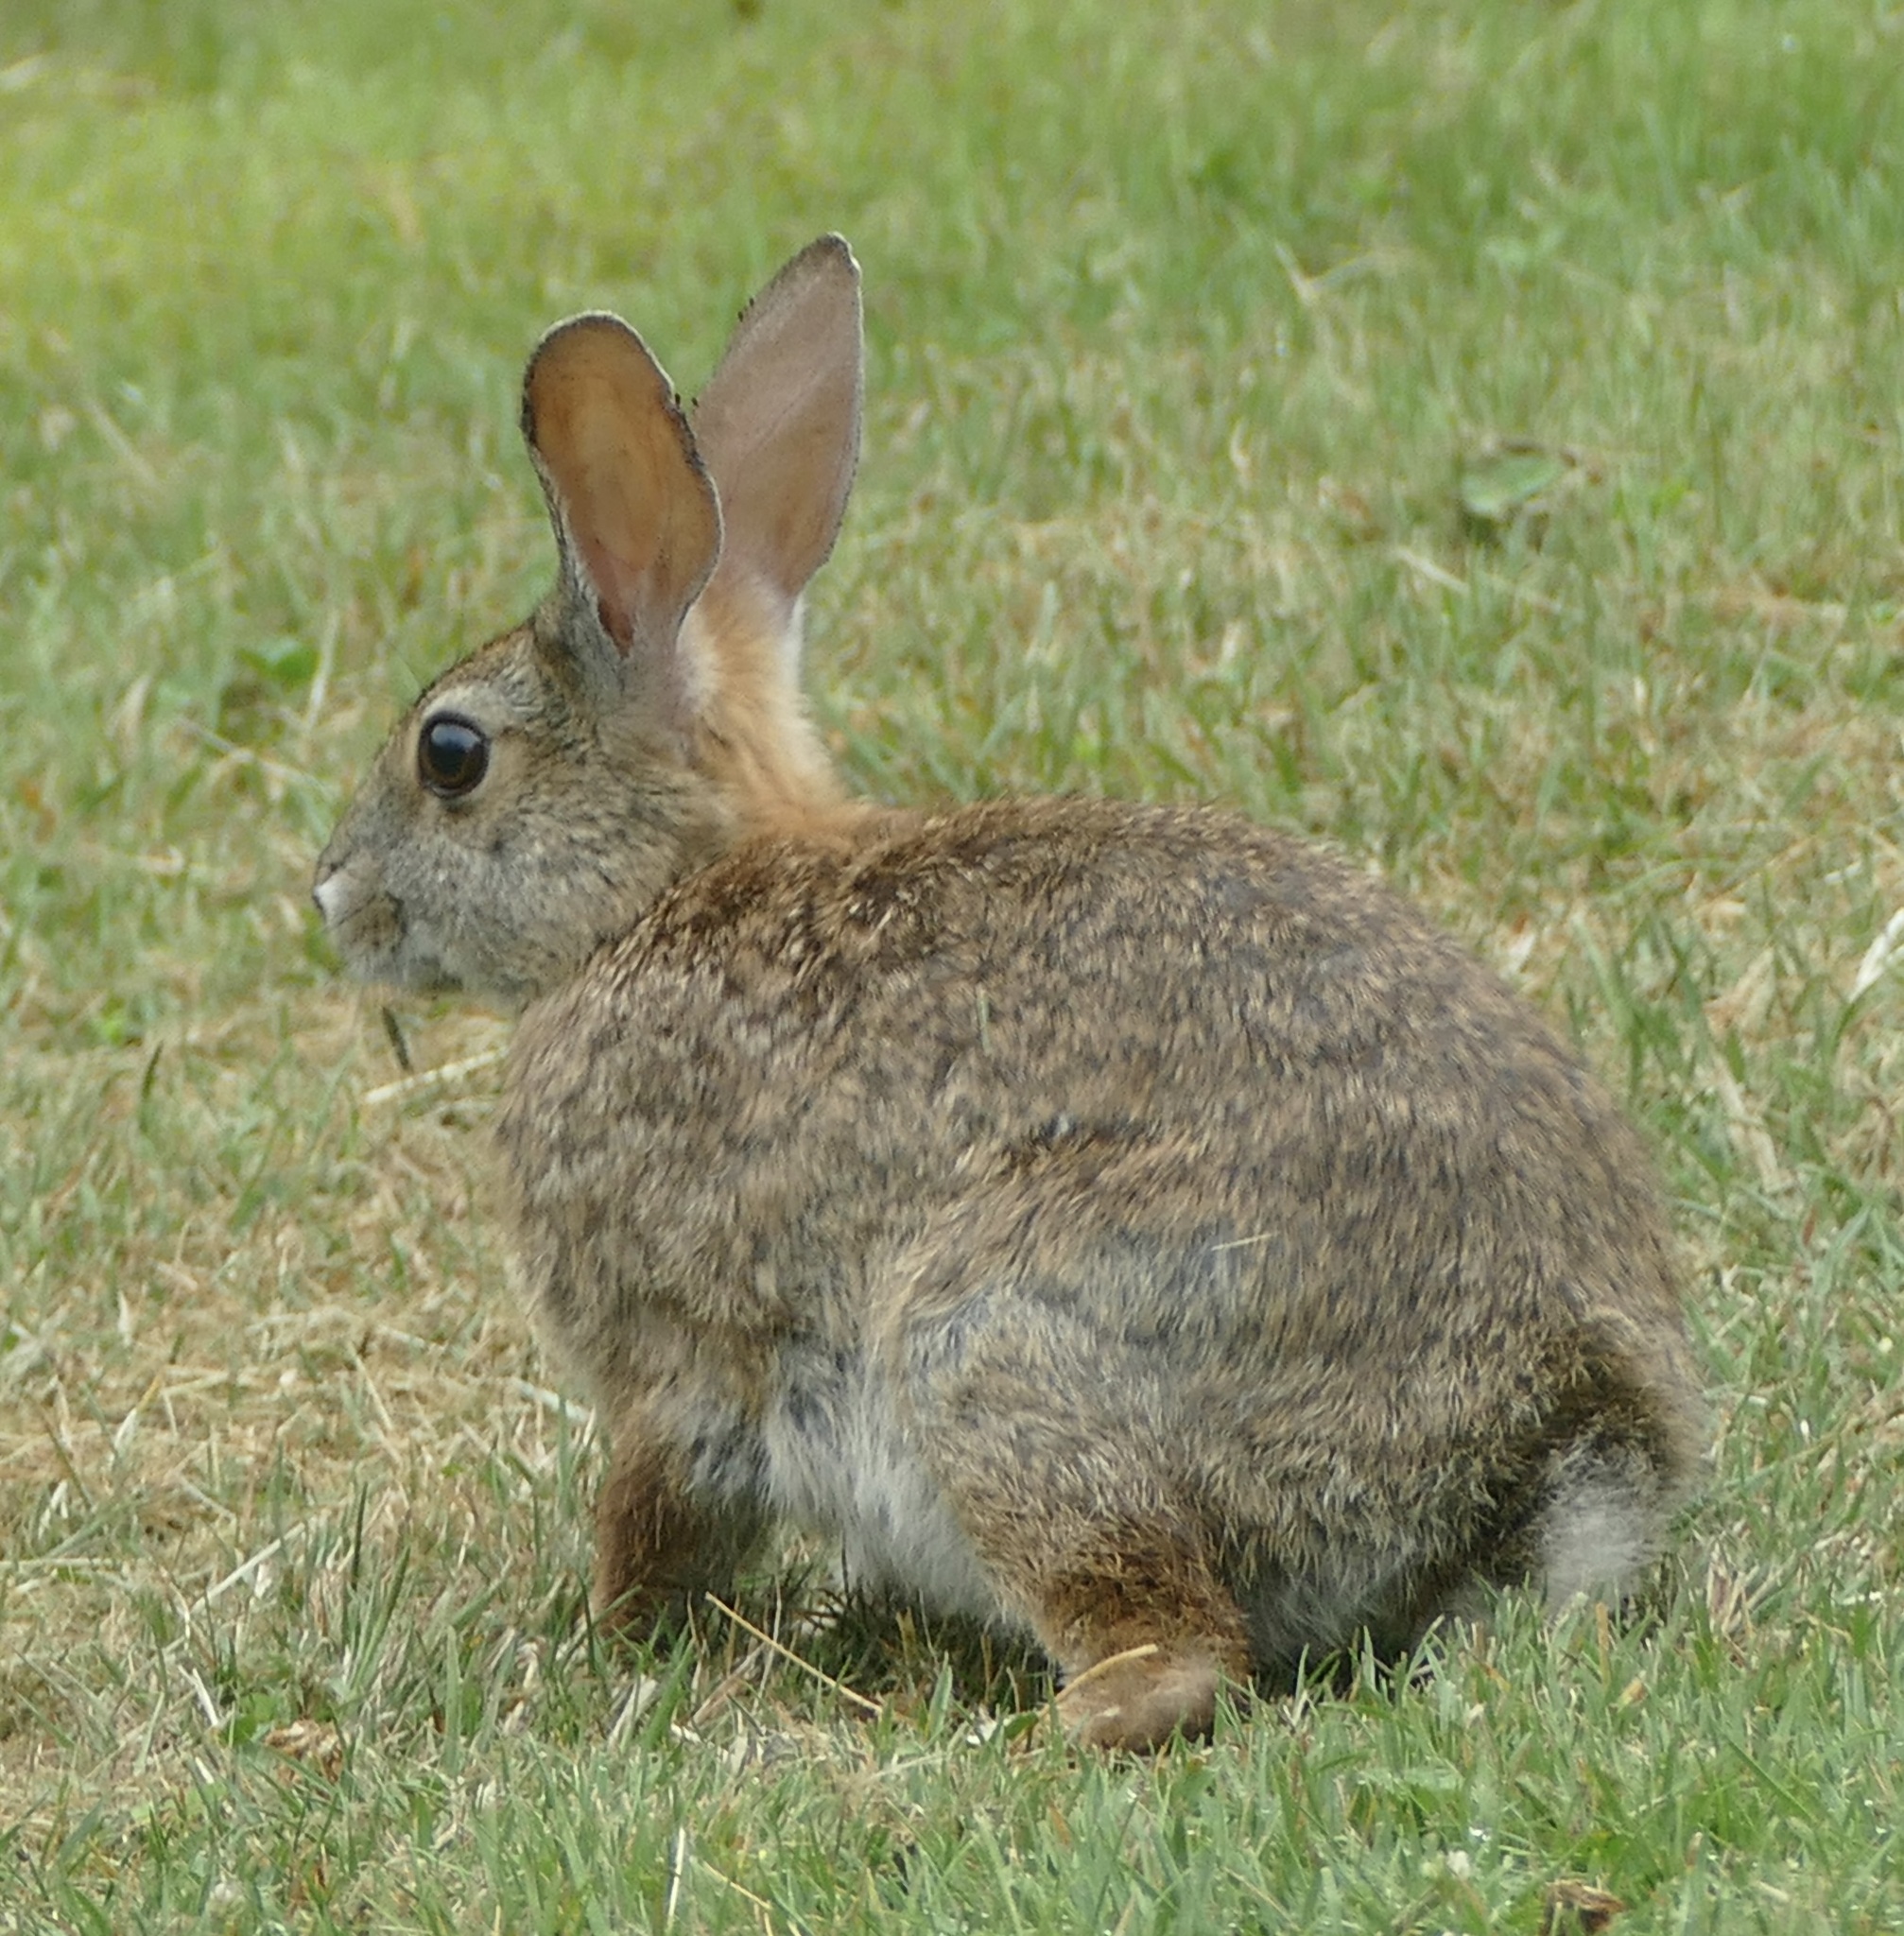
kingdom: Animalia
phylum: Chordata
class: Mammalia
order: Lagomorpha
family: Leporidae
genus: Sylvilagus
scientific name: Sylvilagus bachmani
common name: Brush rabbit
